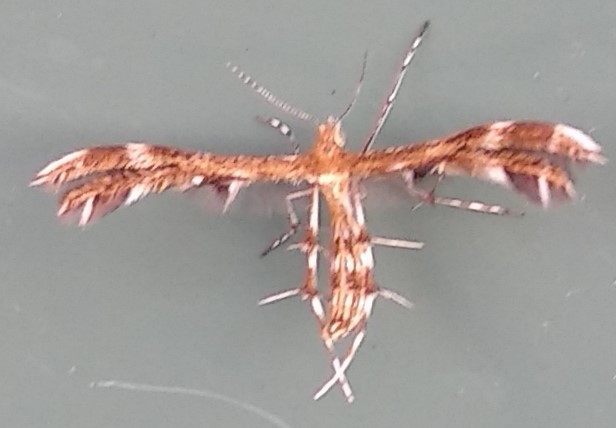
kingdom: Animalia
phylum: Arthropoda
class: Insecta
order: Lepidoptera
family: Pterophoridae
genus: Dejongia
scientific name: Dejongia lobidactylus
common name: Lobed plume moth
